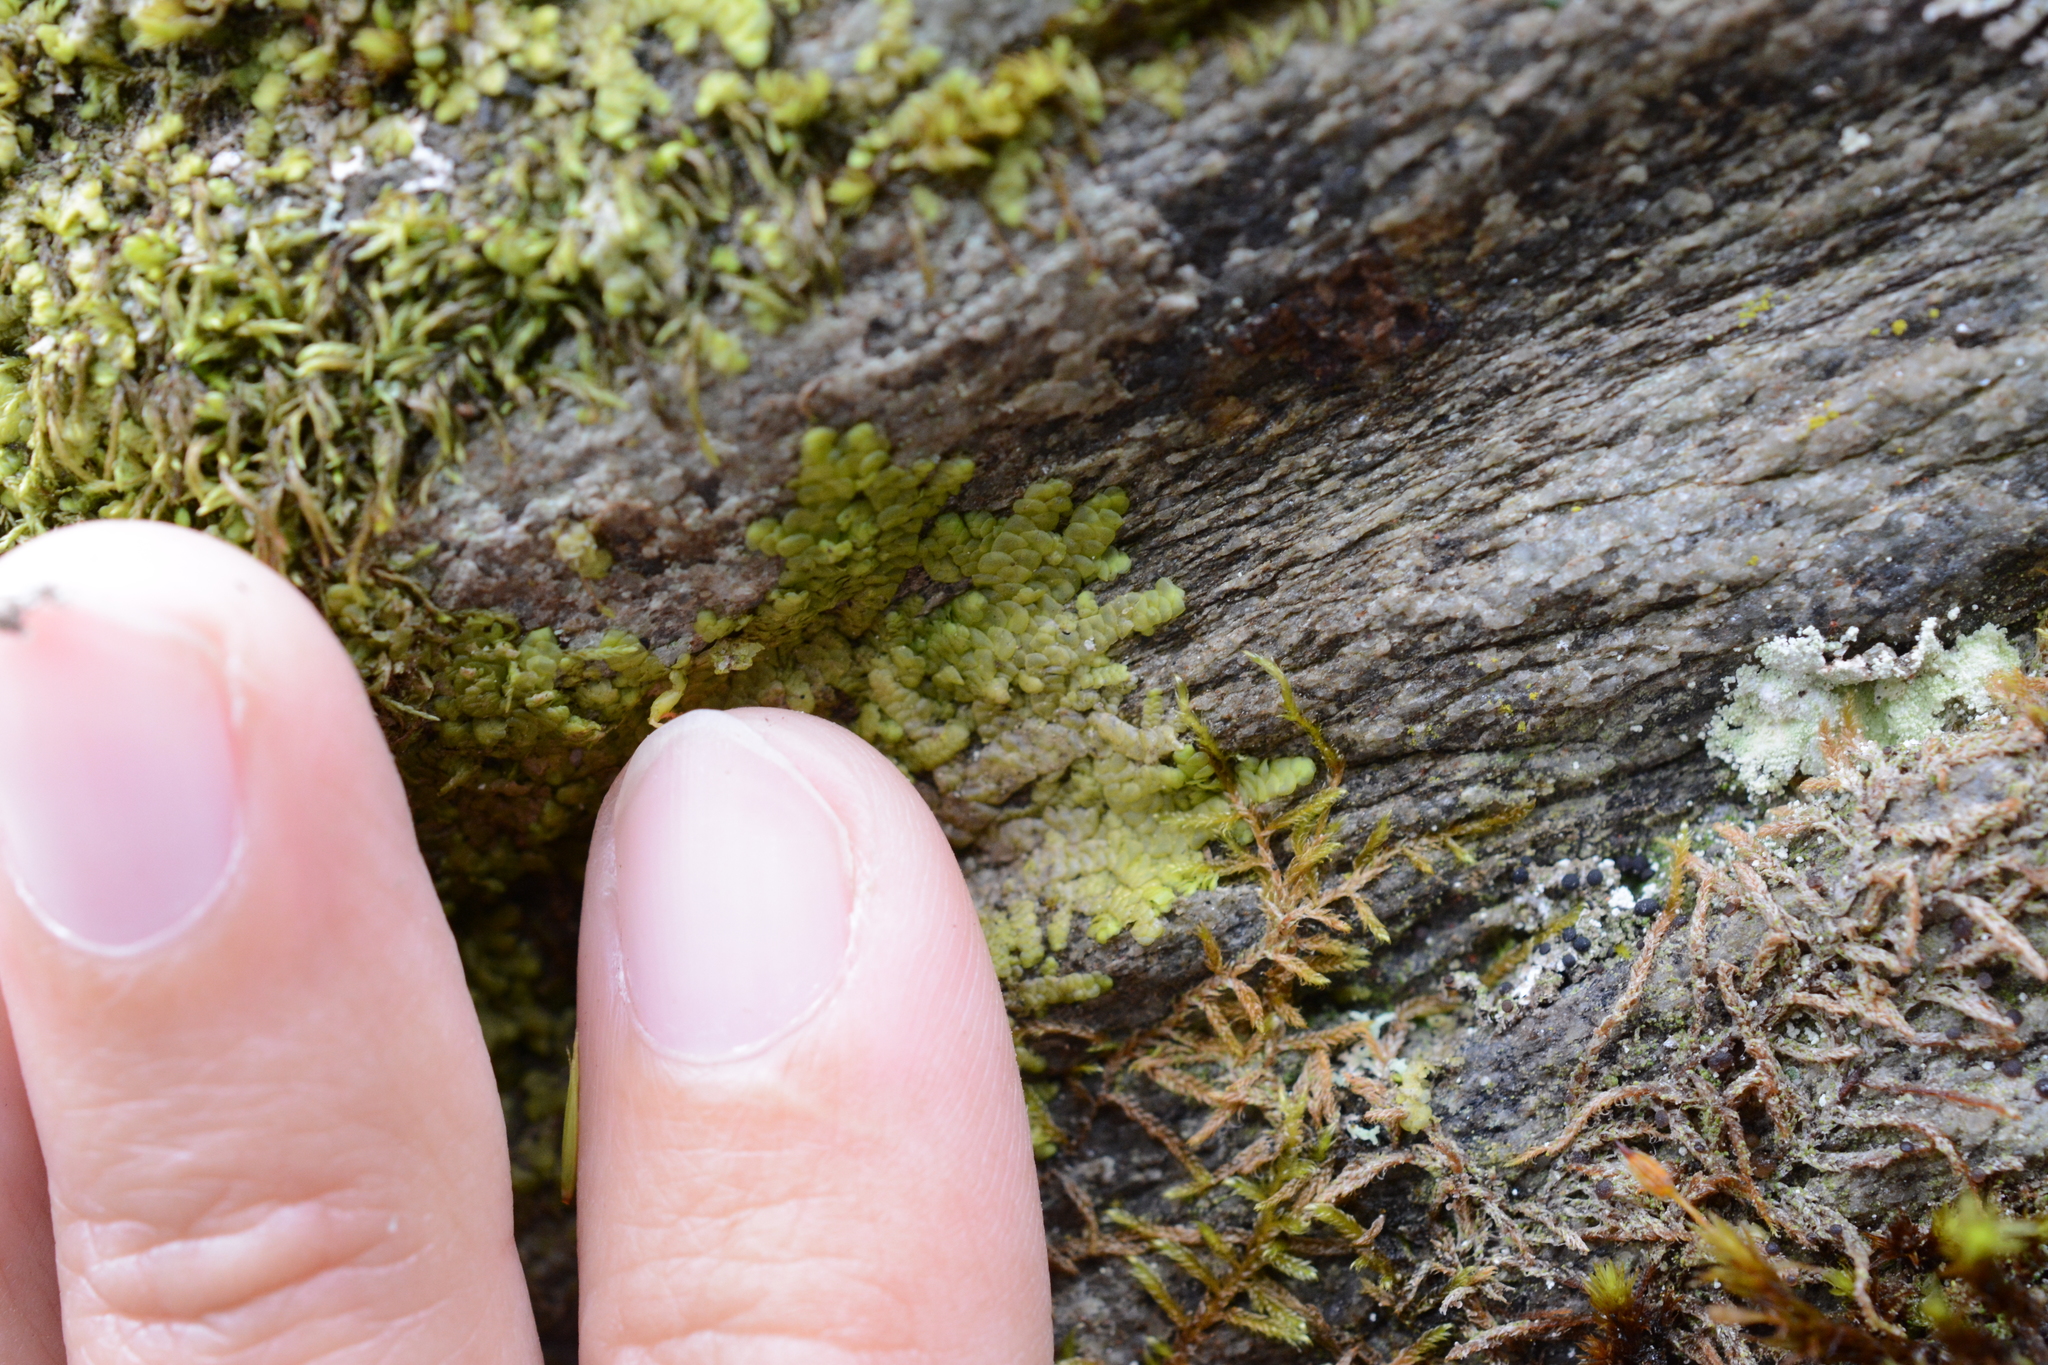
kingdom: Plantae
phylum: Marchantiophyta
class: Jungermanniopsida
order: Porellales
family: Radulaceae
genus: Radula
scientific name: Radula complanata
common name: Flat-leaved scalewort
